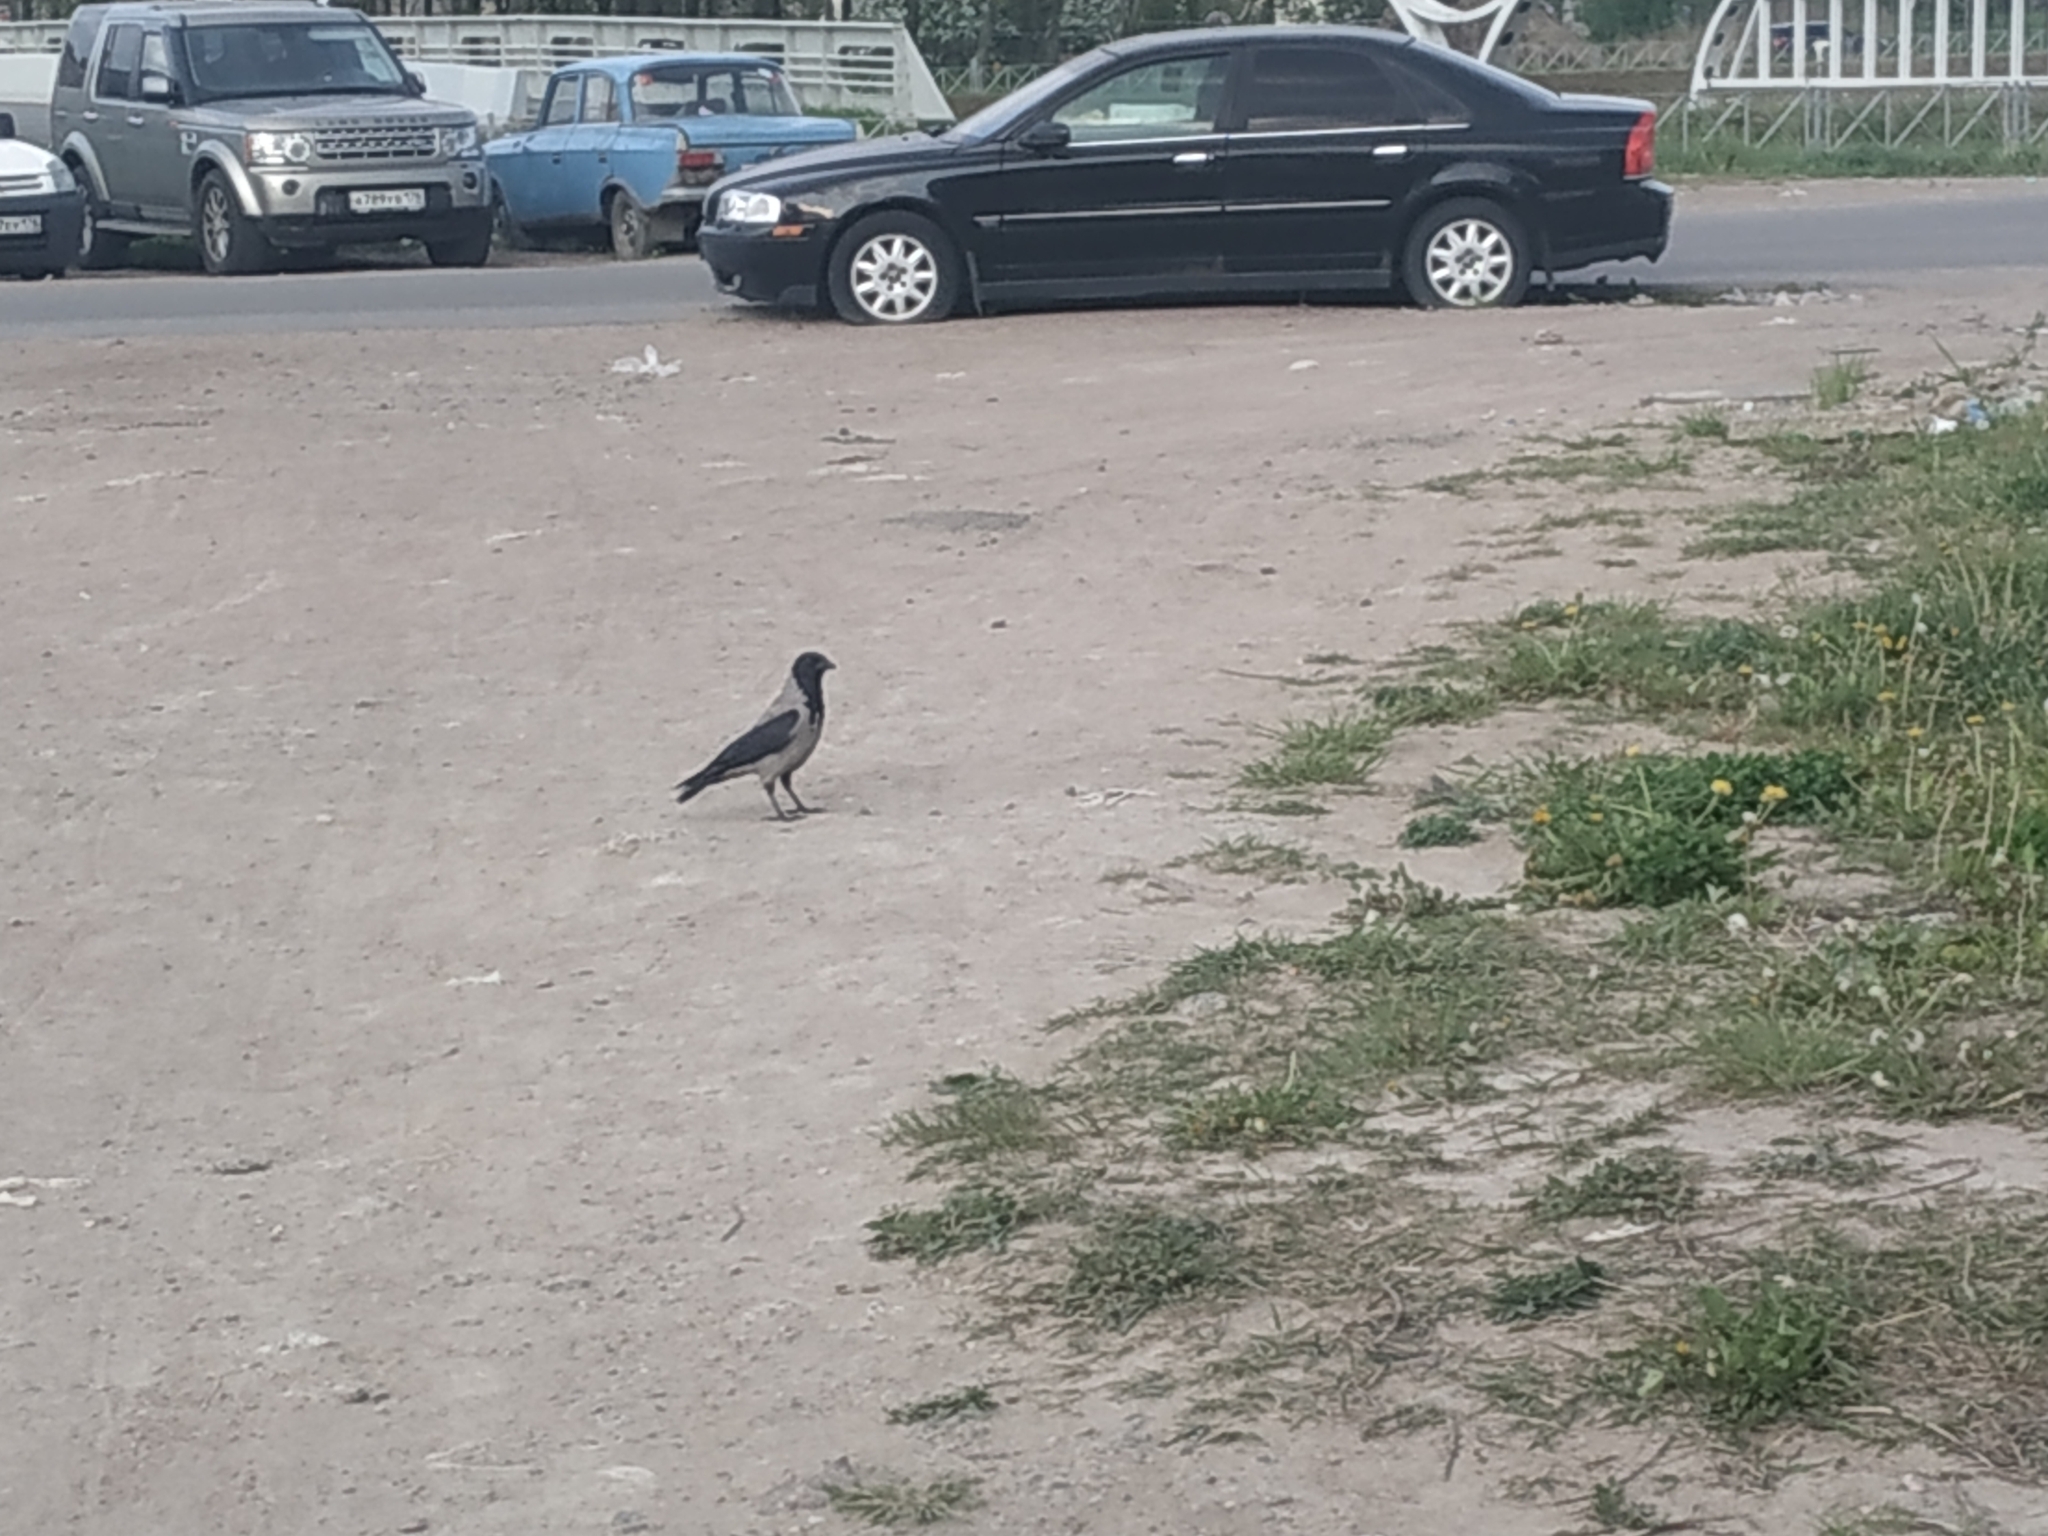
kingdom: Animalia
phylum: Chordata
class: Aves
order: Passeriformes
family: Corvidae
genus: Corvus
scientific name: Corvus cornix
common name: Hooded crow
